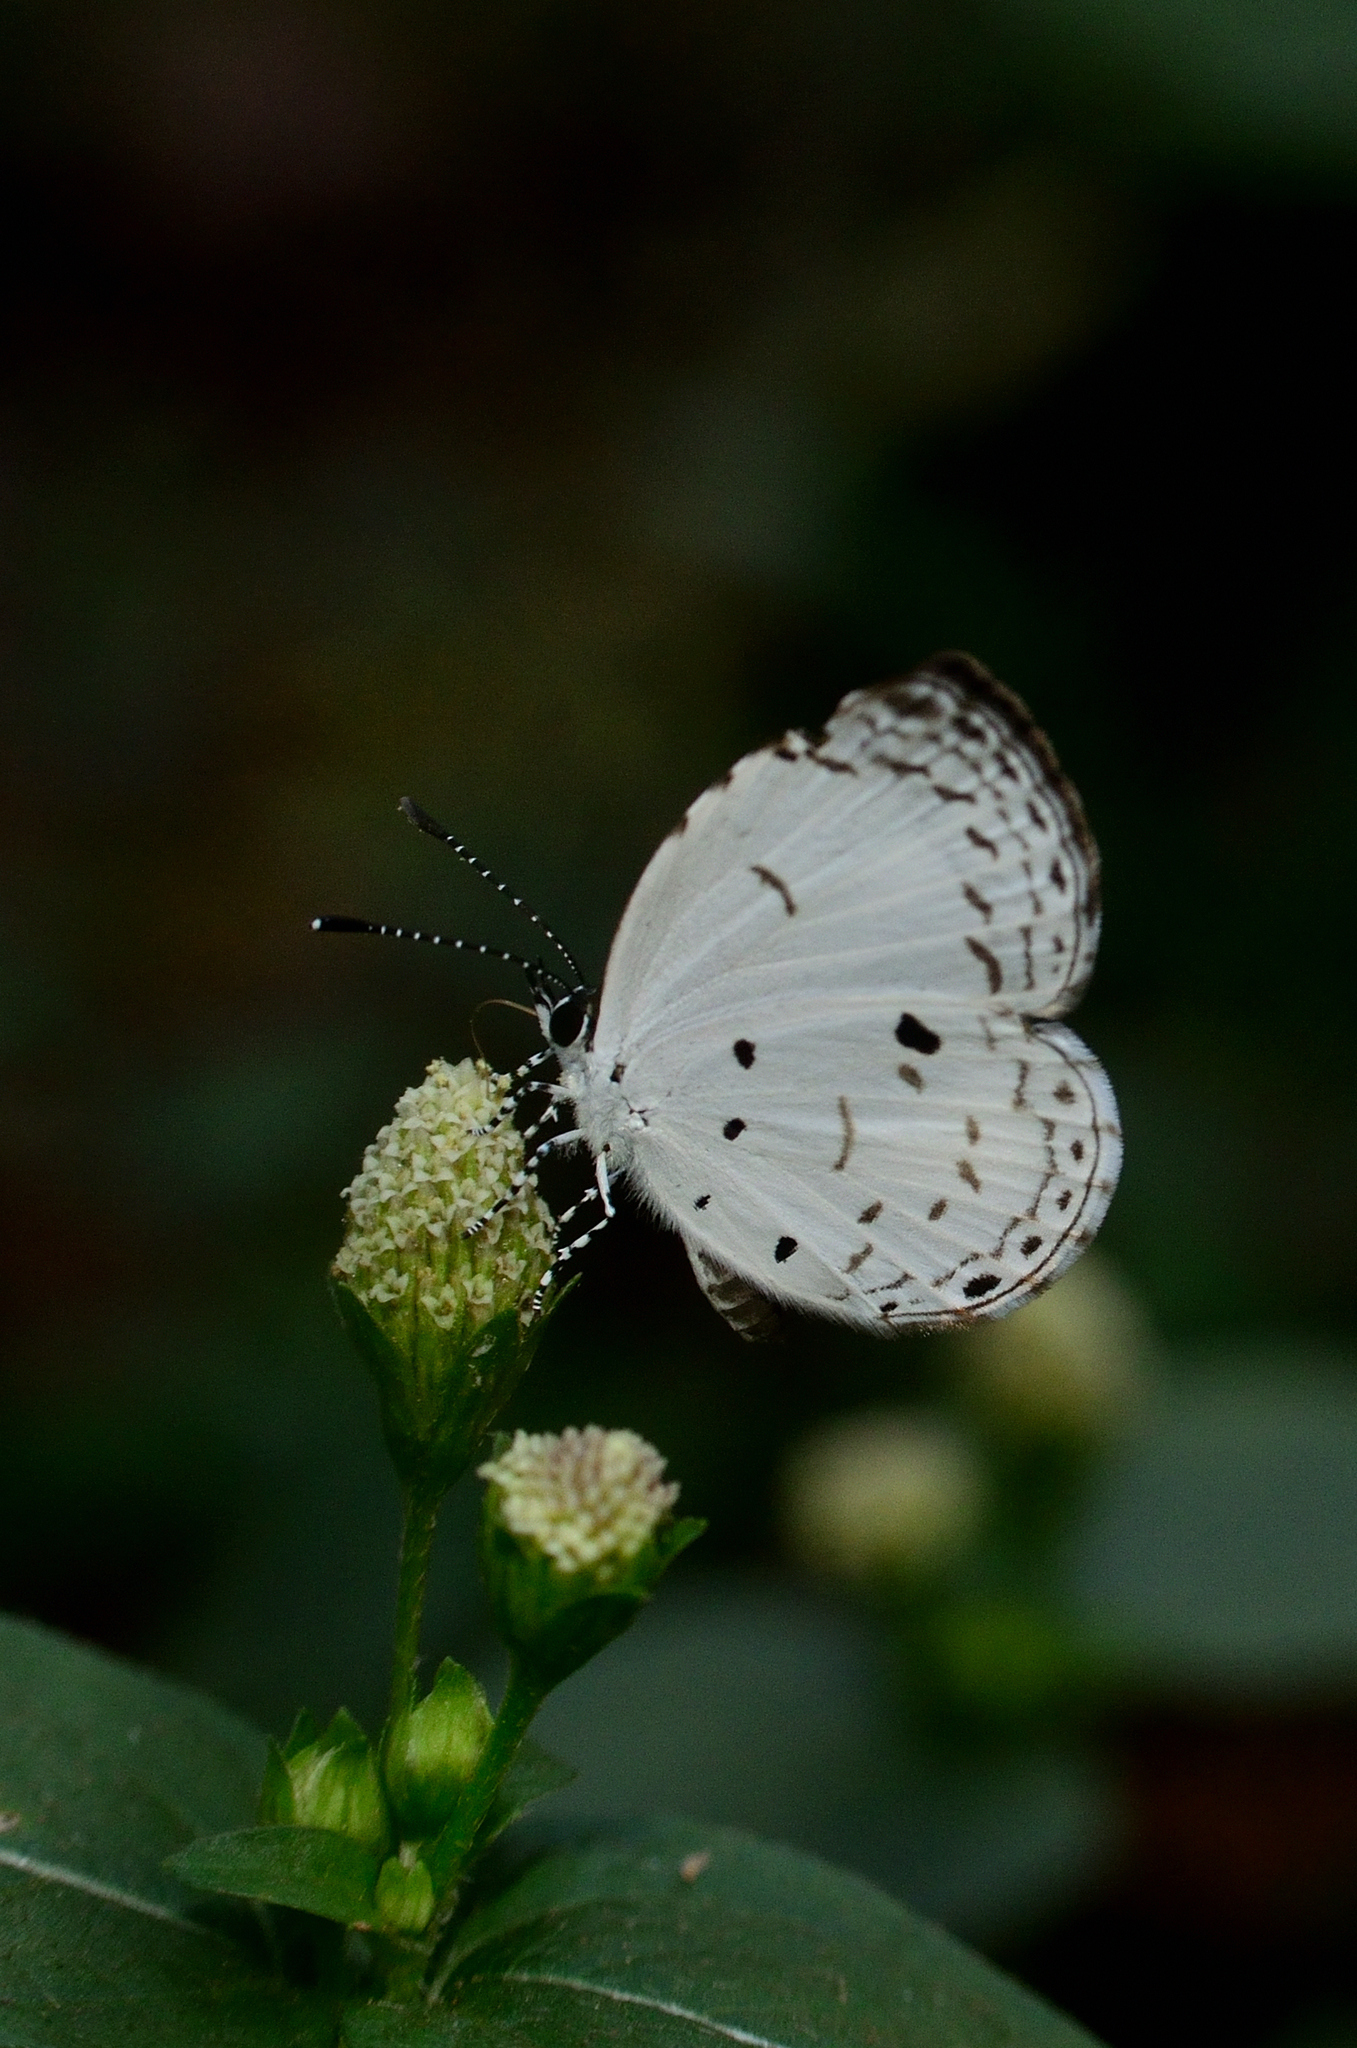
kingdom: Animalia
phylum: Arthropoda
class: Insecta
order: Lepidoptera
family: Lycaenidae
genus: Neopithecops
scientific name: Neopithecops zalmora
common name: Quaker
